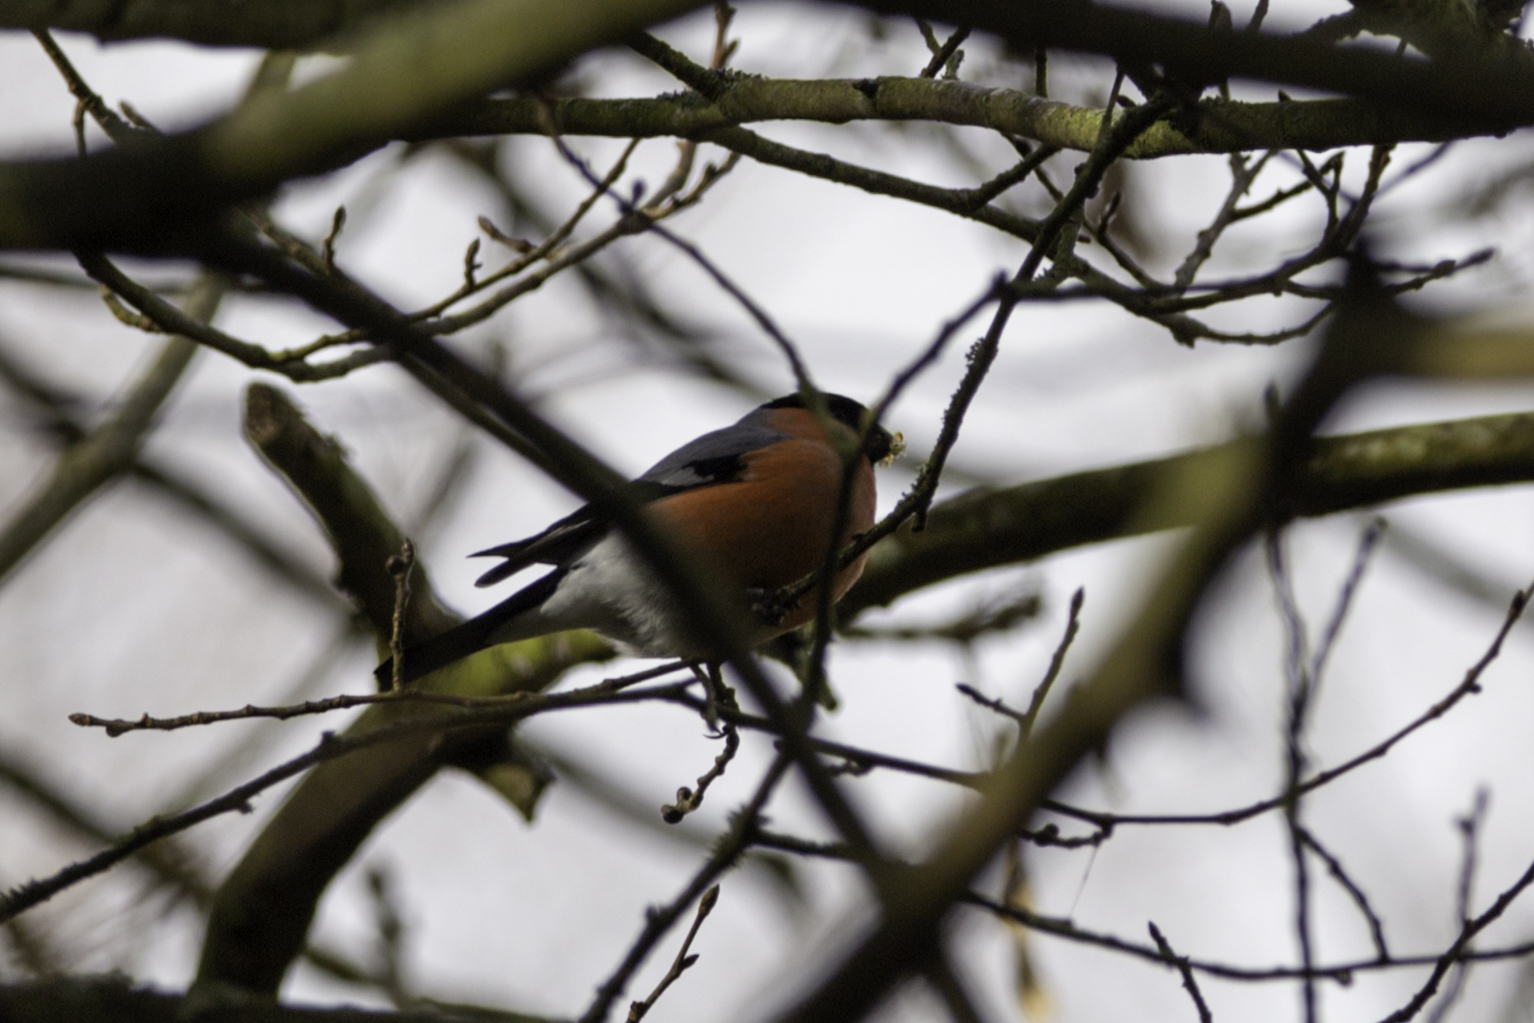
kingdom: Animalia
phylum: Chordata
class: Aves
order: Passeriformes
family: Fringillidae
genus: Pyrrhula
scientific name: Pyrrhula pyrrhula
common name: Eurasian bullfinch
